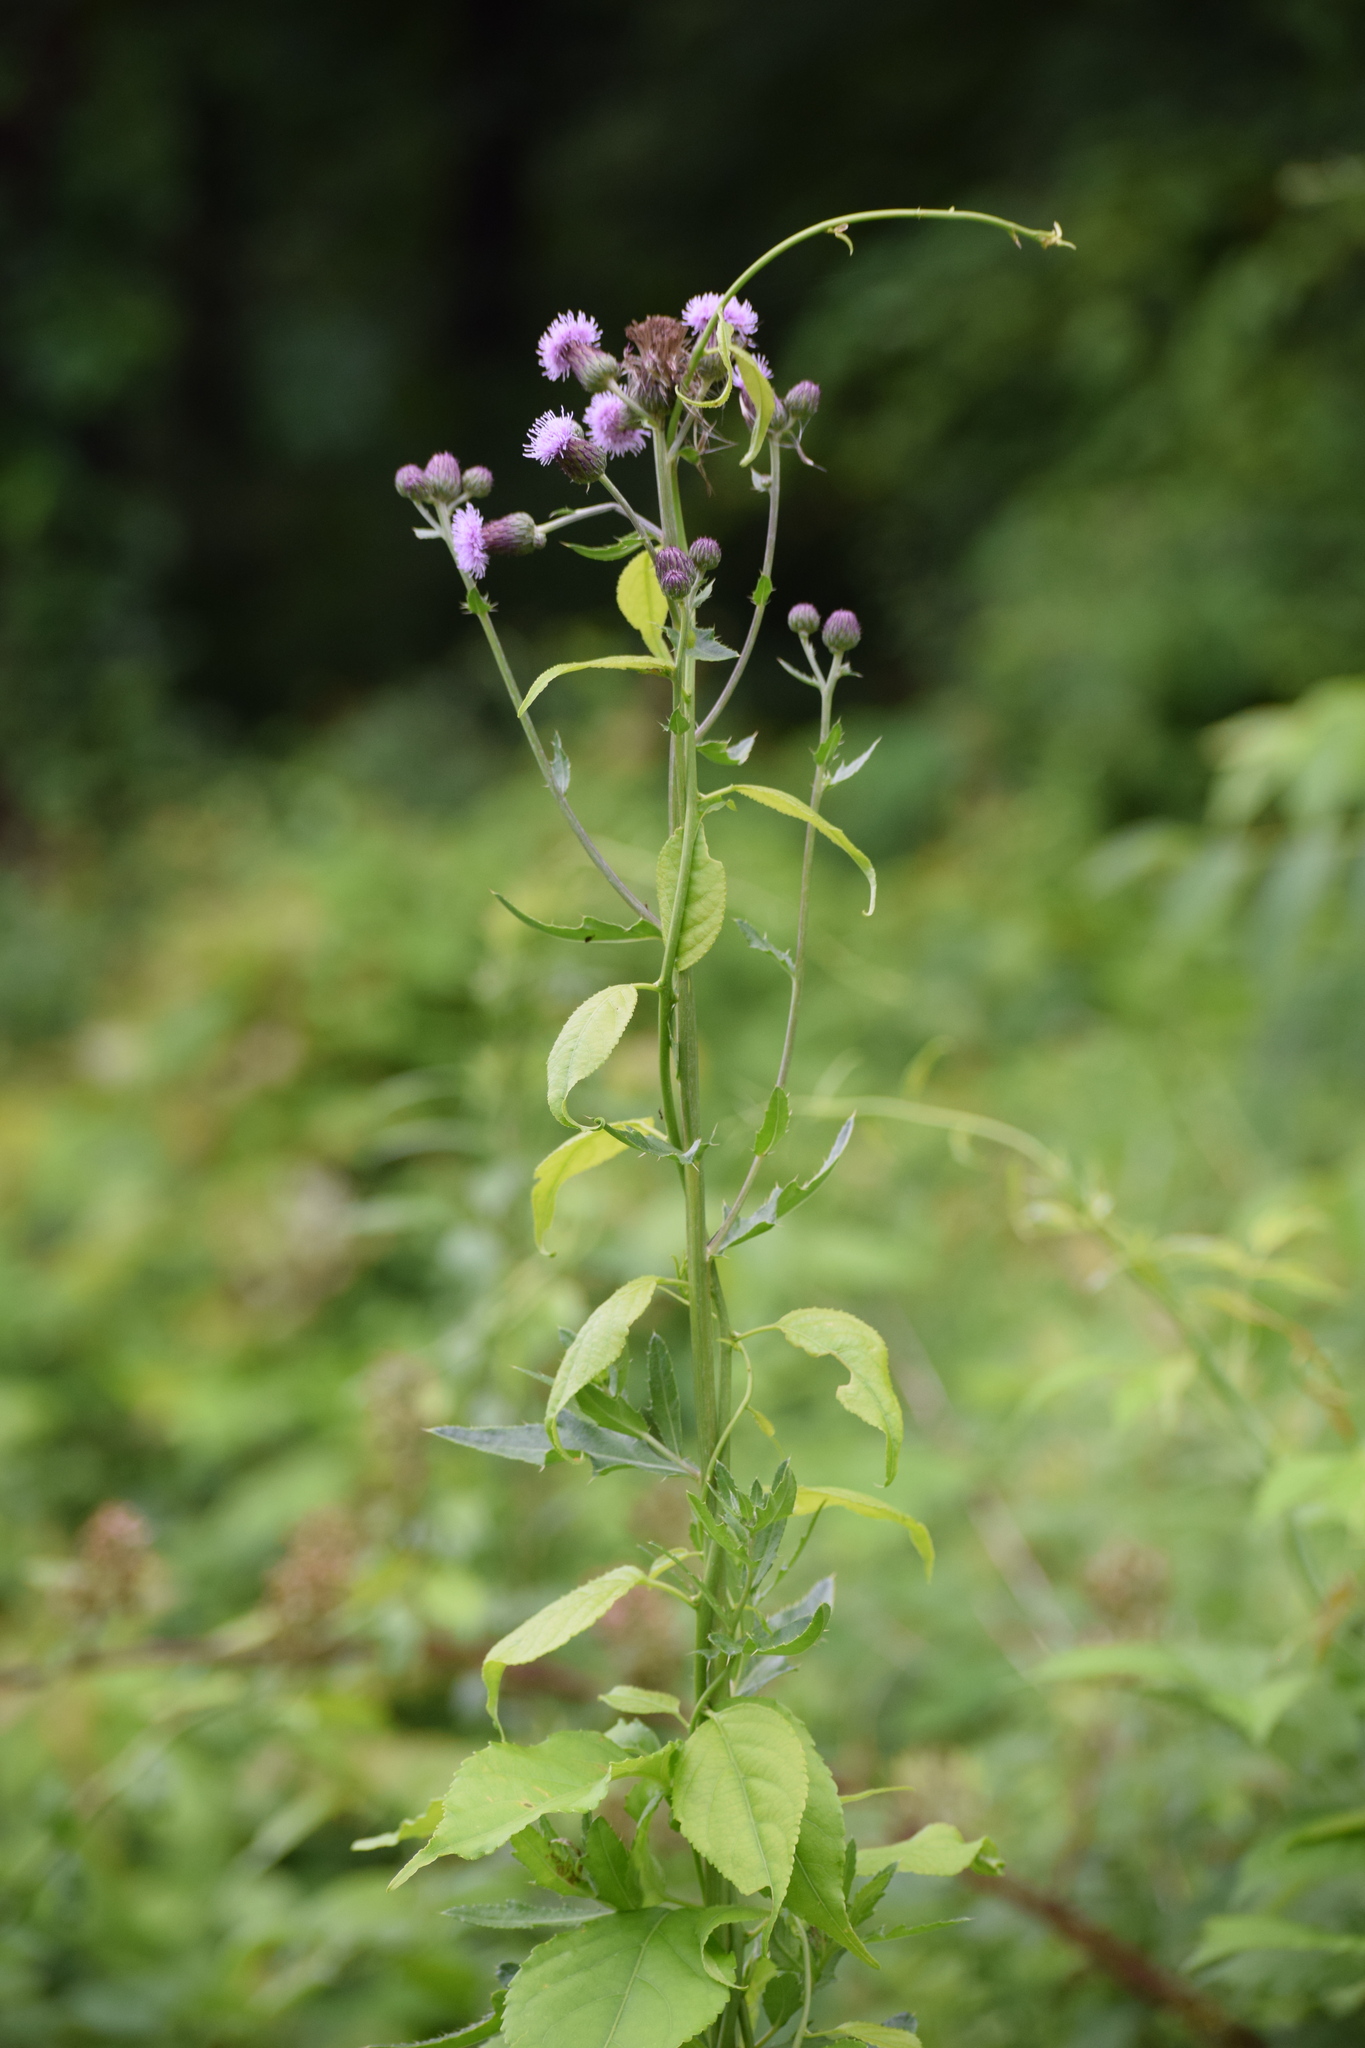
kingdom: Plantae
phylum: Tracheophyta
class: Magnoliopsida
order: Asterales
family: Asteraceae
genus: Cirsium
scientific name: Cirsium arvense
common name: Creeping thistle
